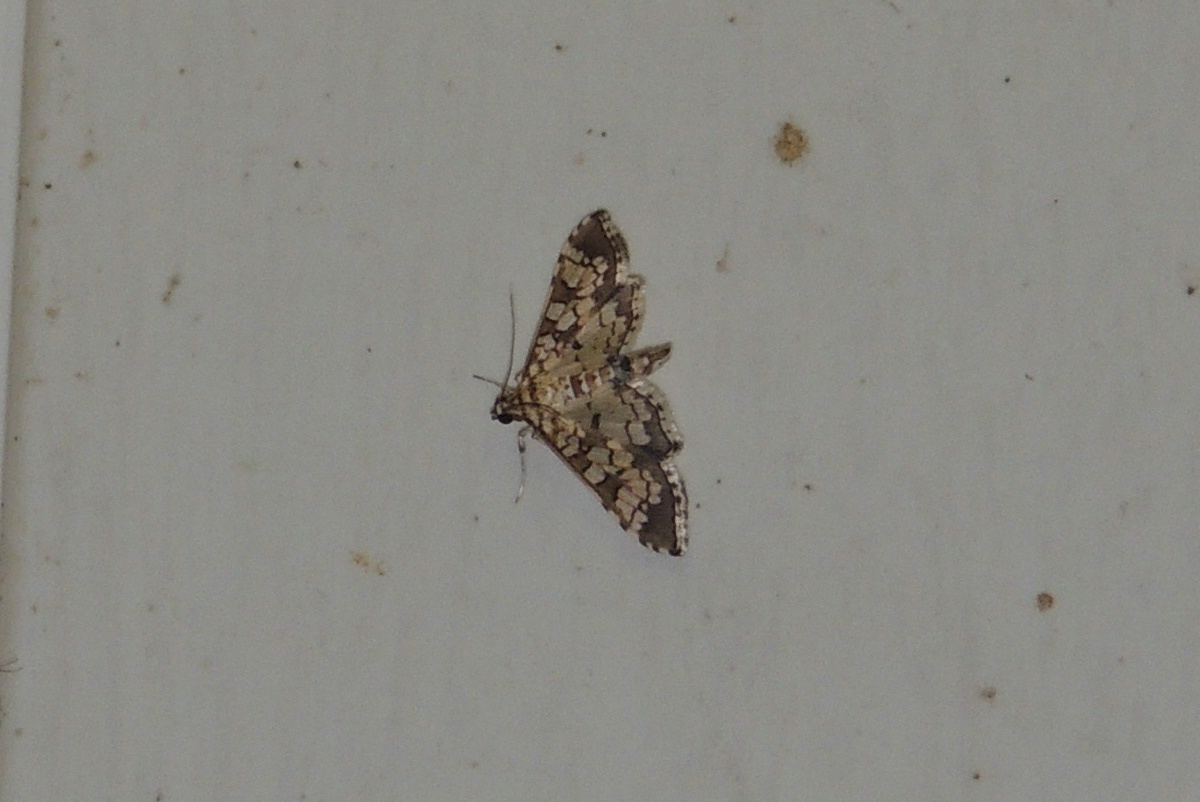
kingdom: Animalia
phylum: Arthropoda
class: Insecta
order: Lepidoptera
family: Crambidae
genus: Samea
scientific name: Samea ecclesialis
